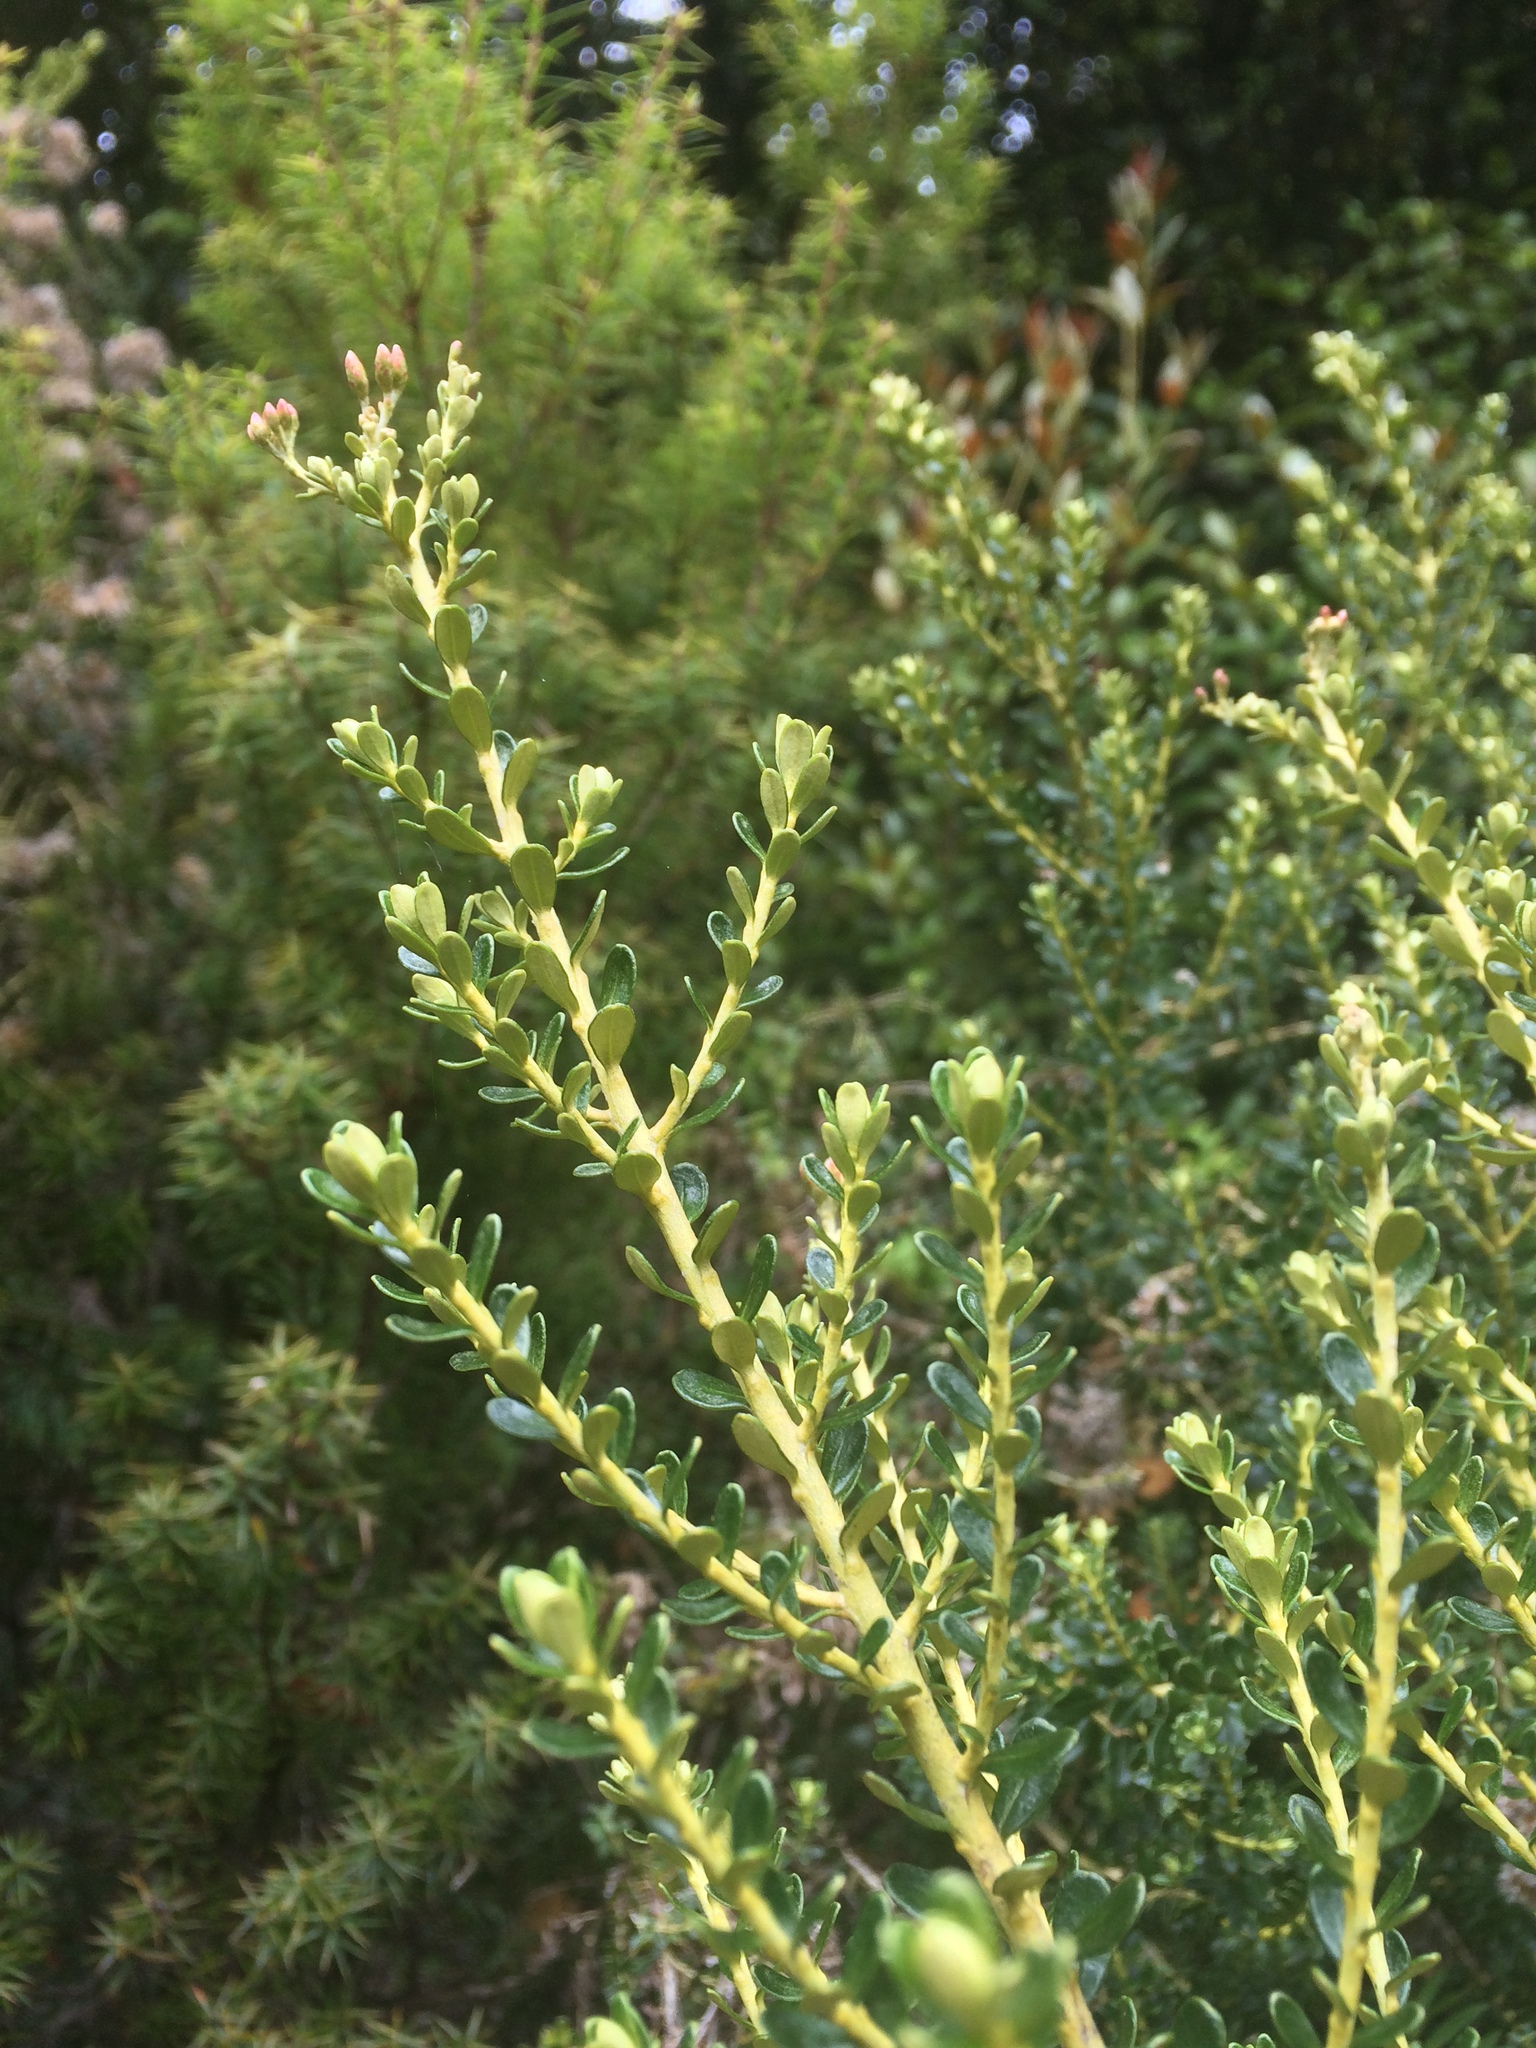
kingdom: Plantae
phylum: Tracheophyta
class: Magnoliopsida
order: Asterales
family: Asteraceae
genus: Ozothamnus
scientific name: Ozothamnus leptophyllus
